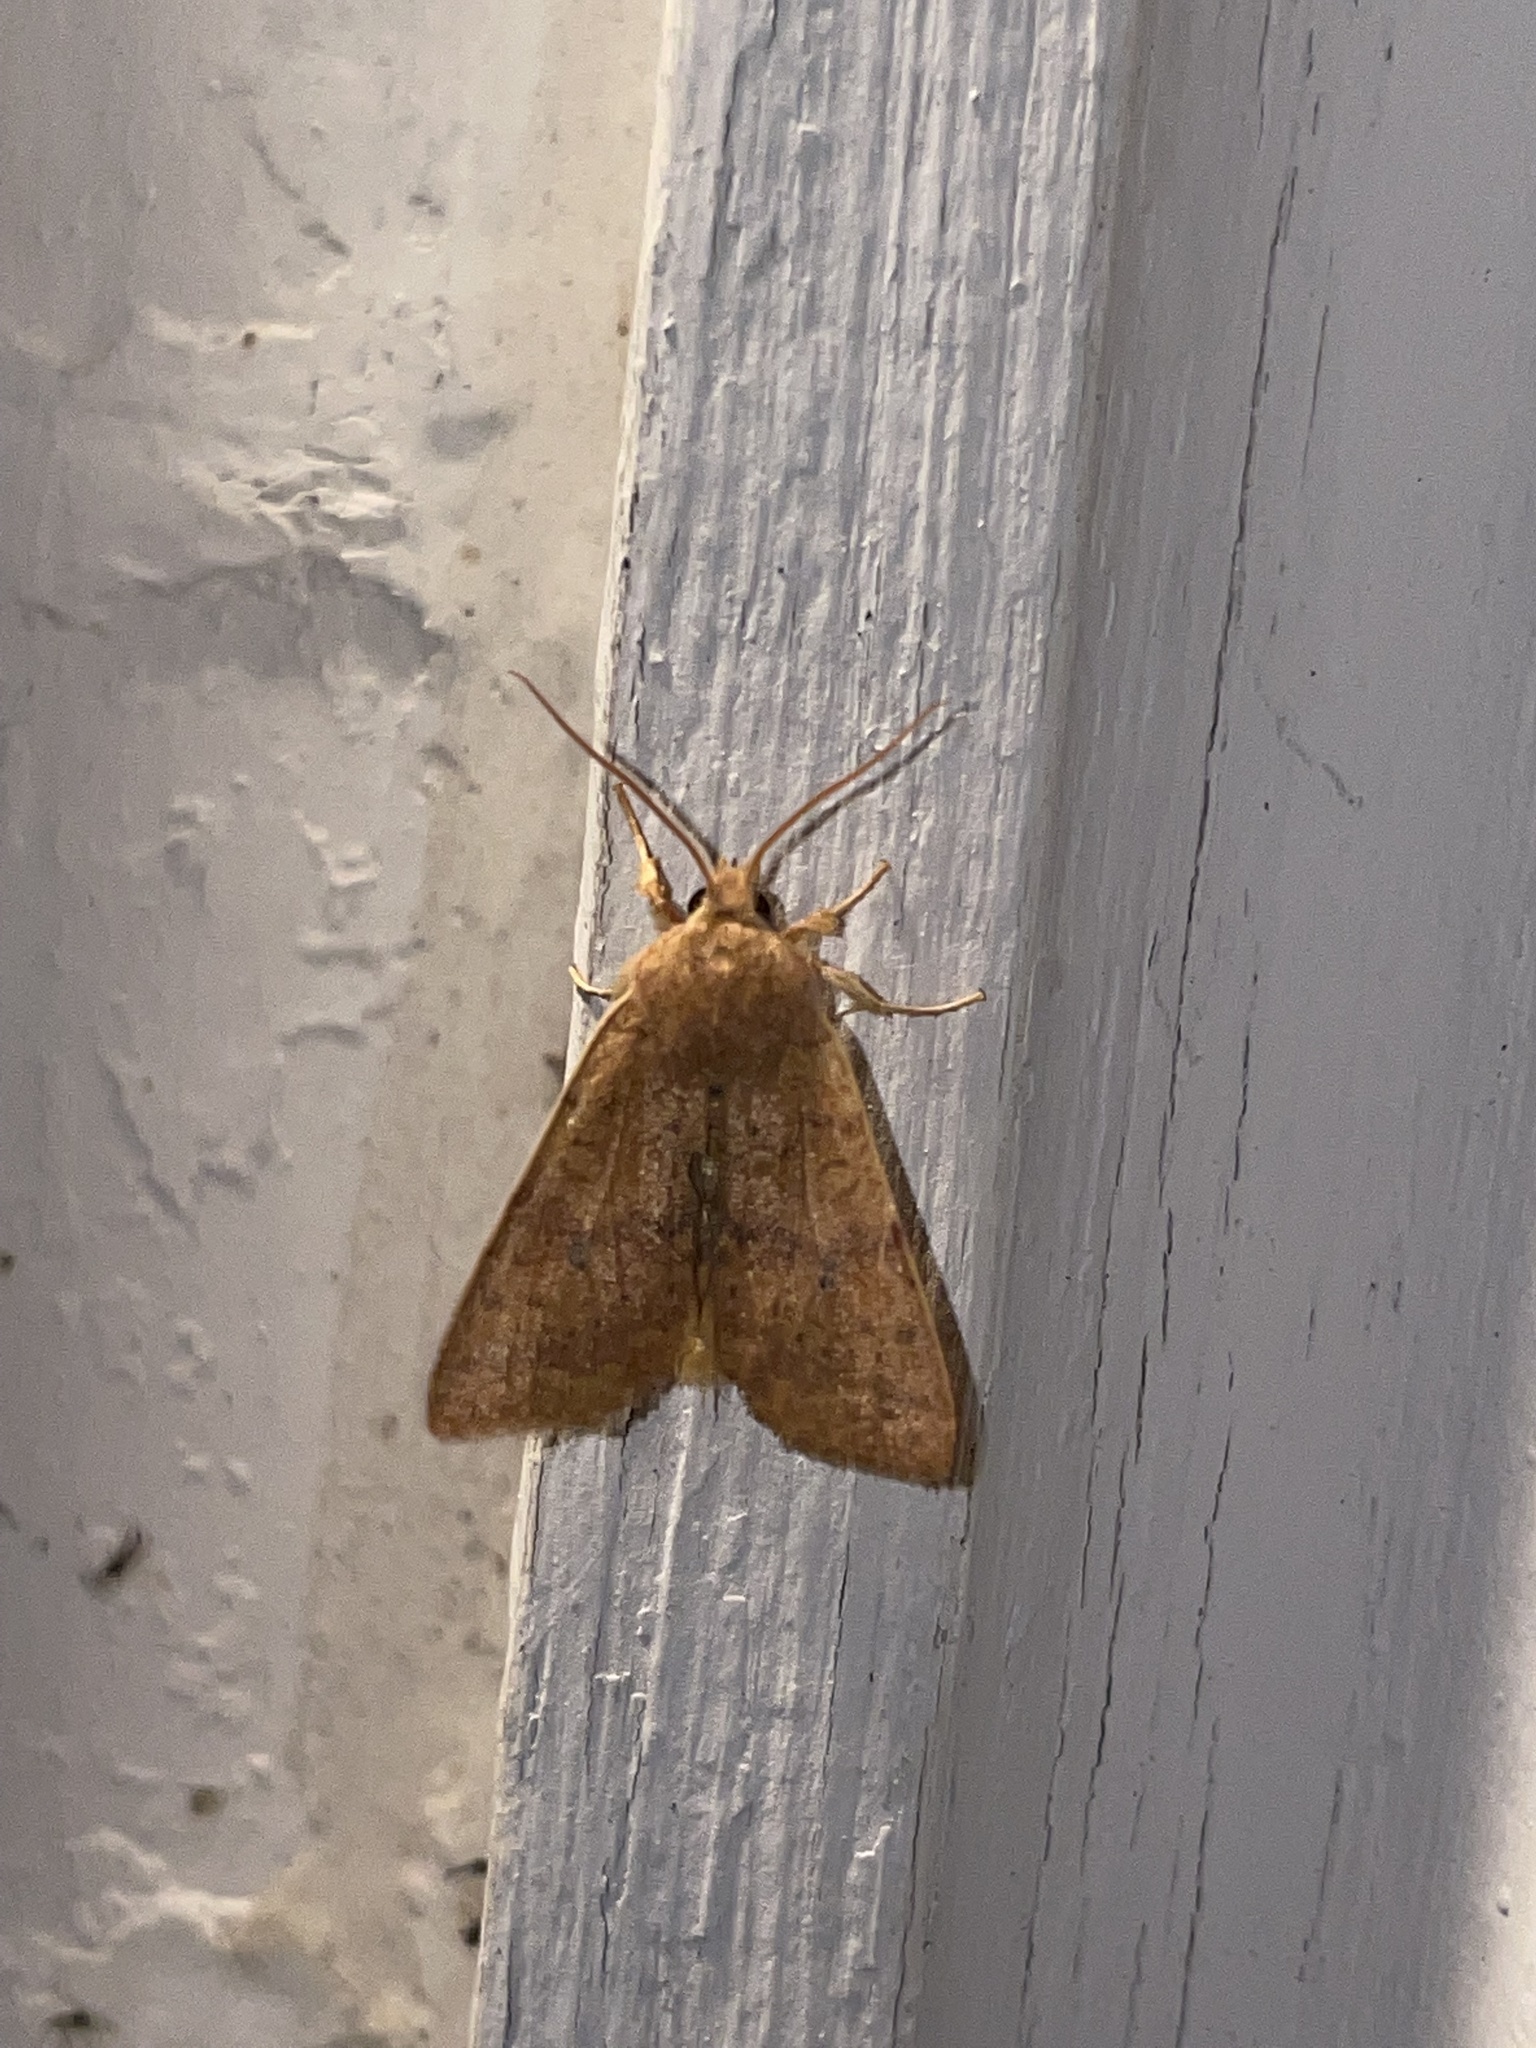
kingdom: Animalia
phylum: Arthropoda
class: Insecta
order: Lepidoptera
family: Noctuidae
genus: Agrochola
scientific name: Agrochola bicolorago
